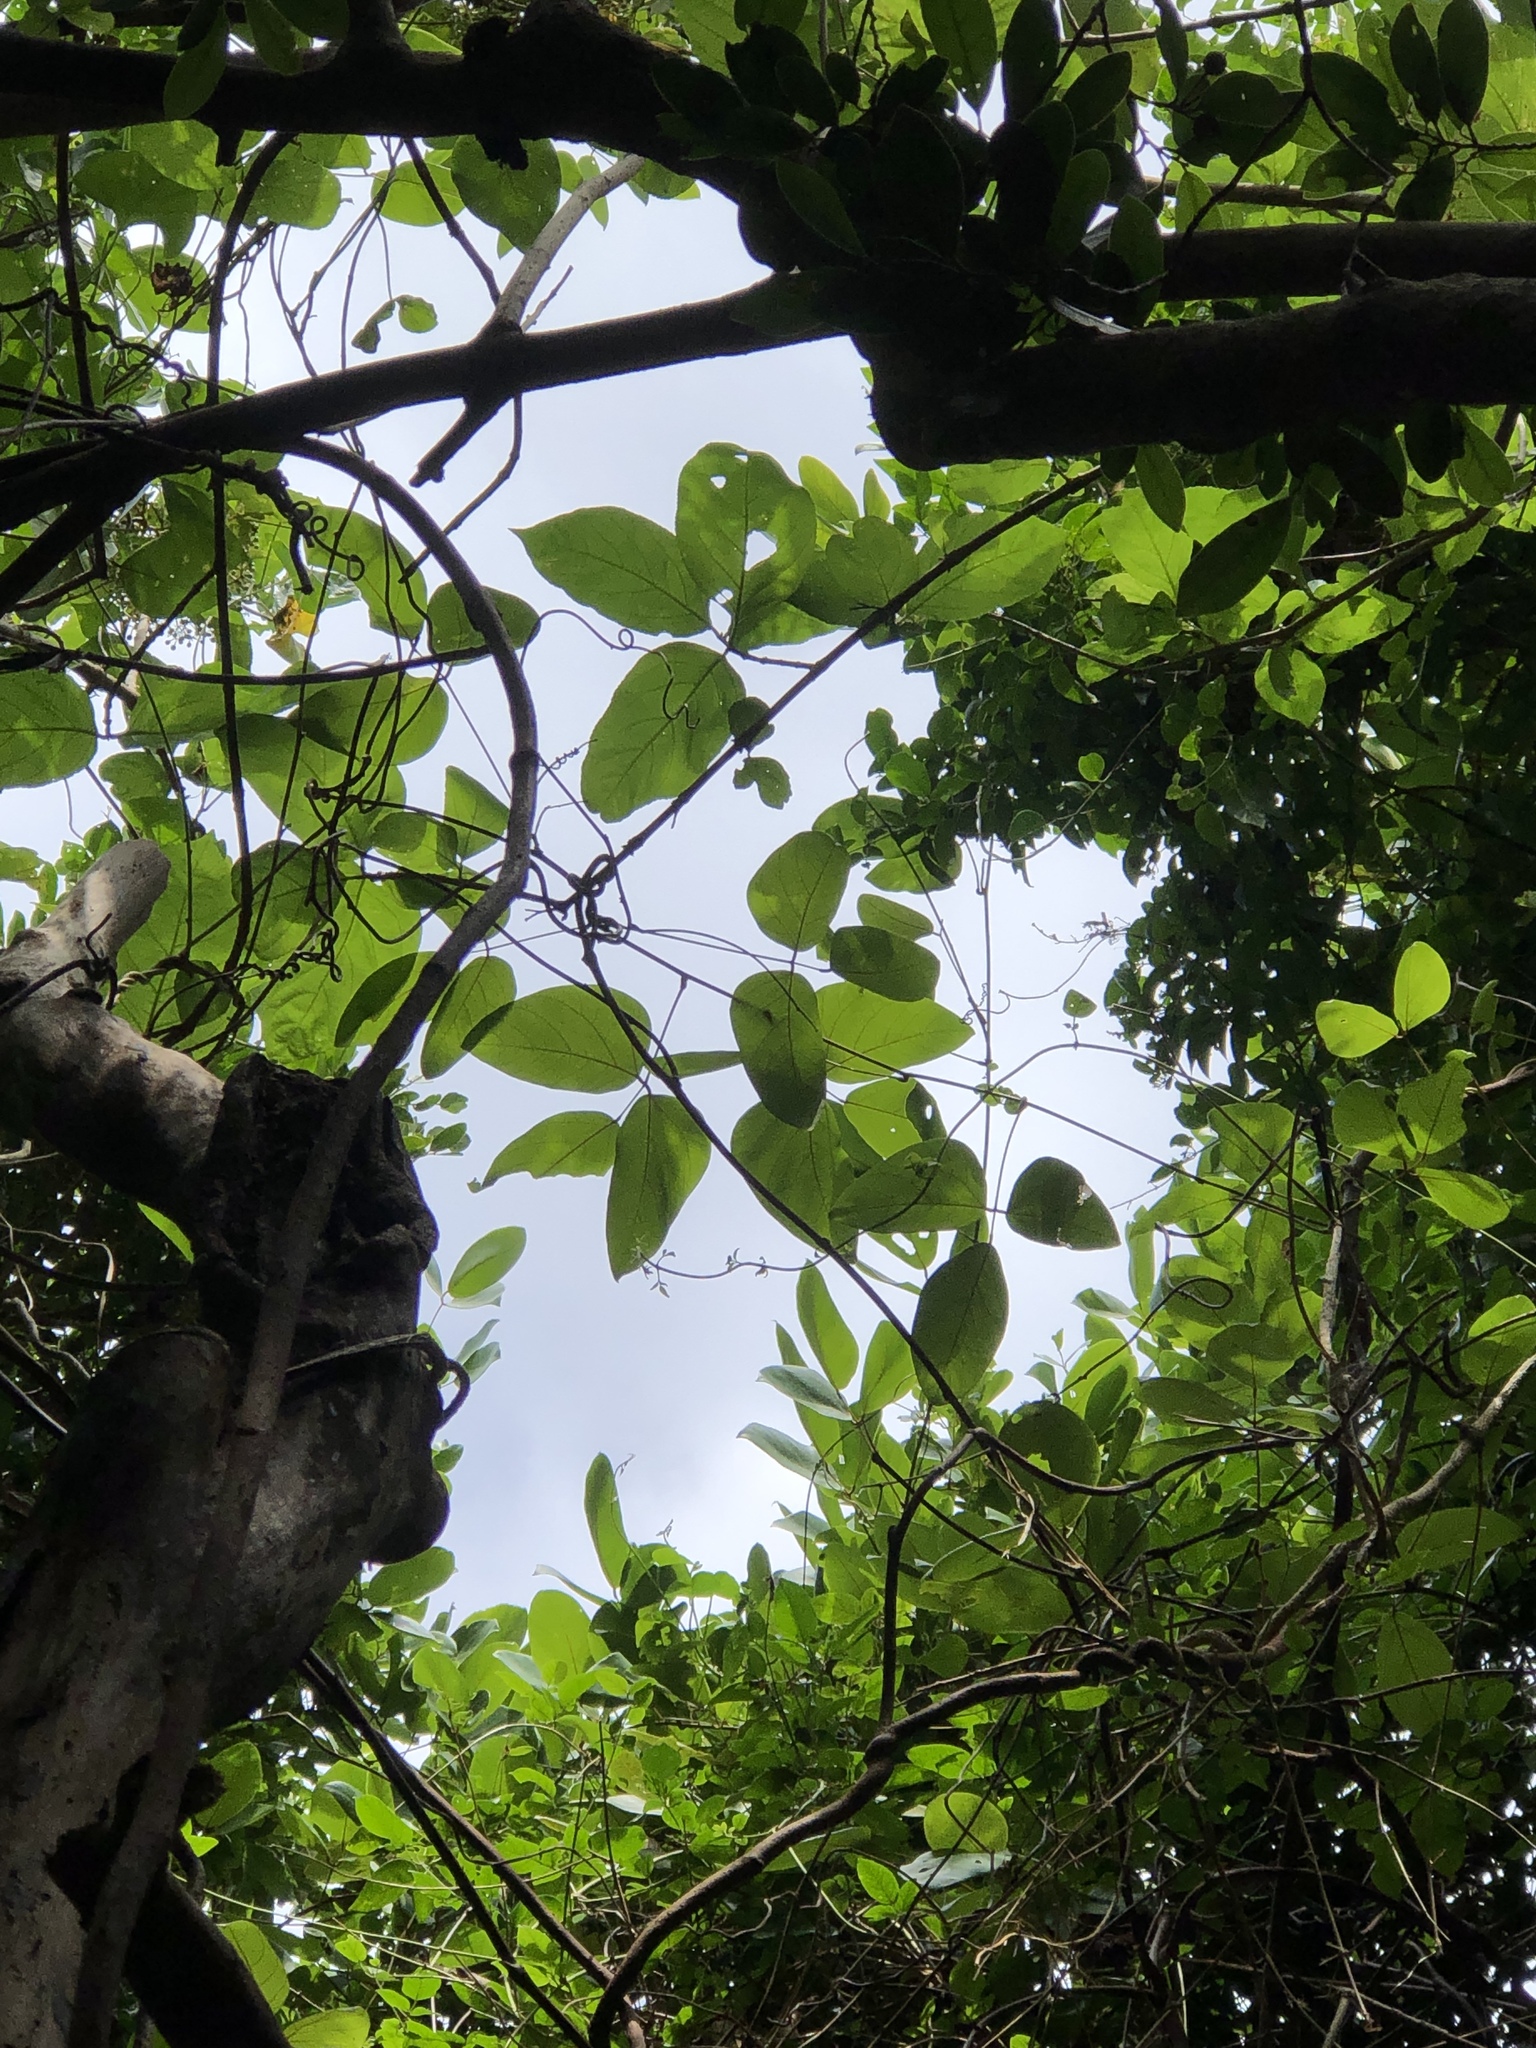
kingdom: Plantae
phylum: Tracheophyta
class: Magnoliopsida
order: Fabales
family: Fabaceae
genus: Mucuna
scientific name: Mucuna macrocarpa
